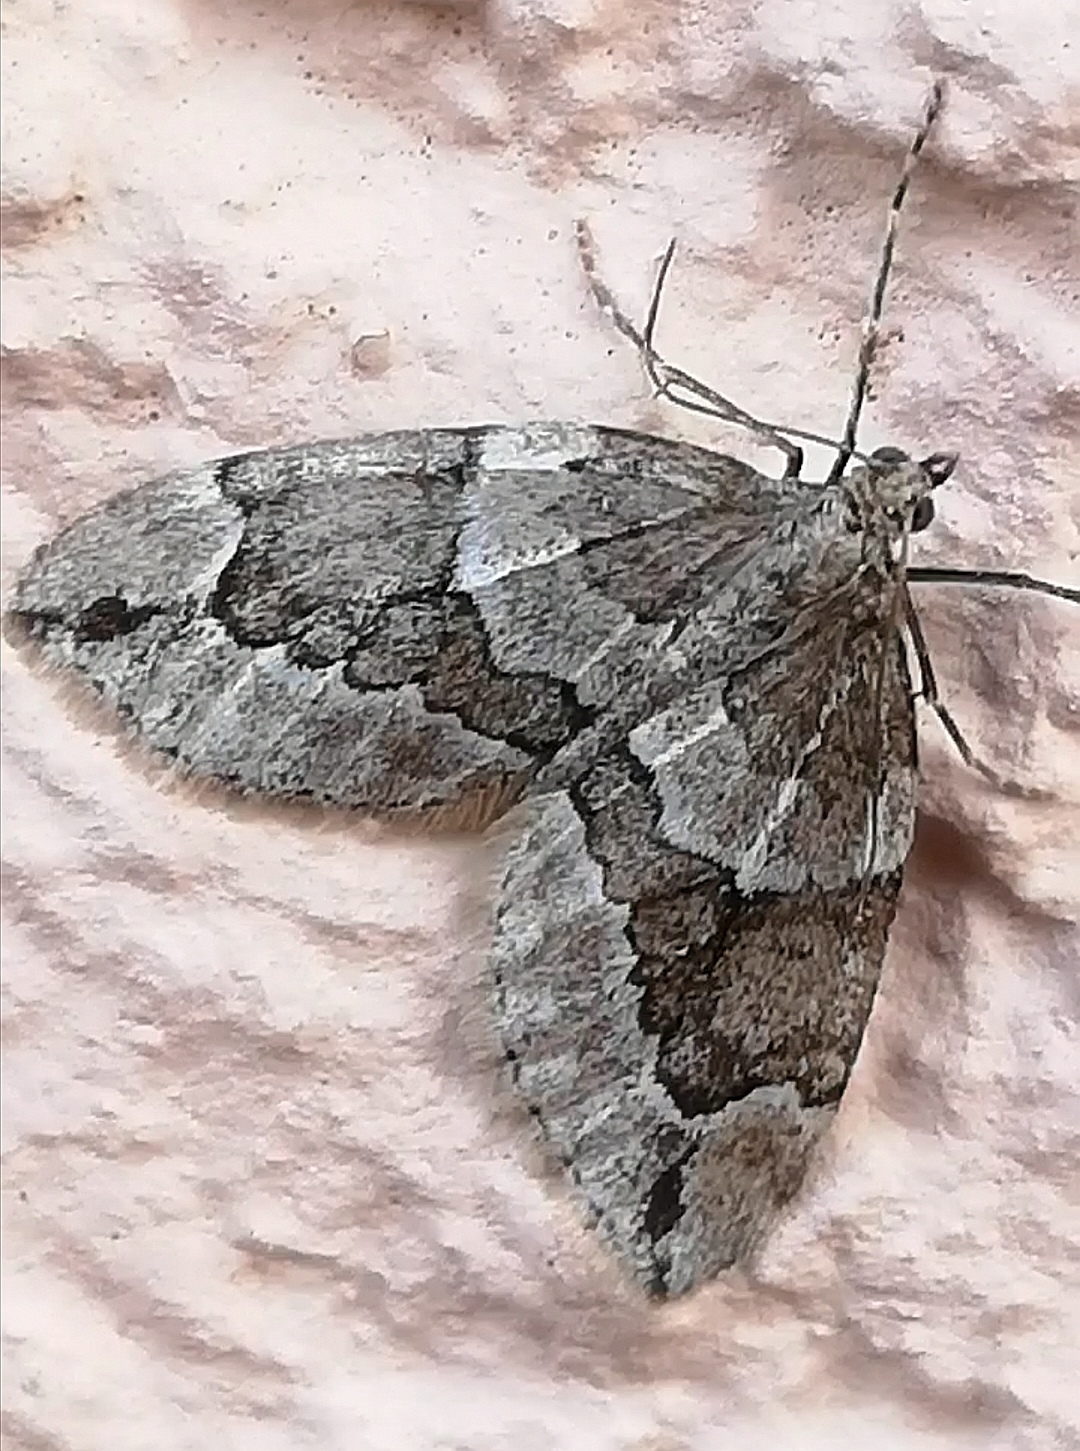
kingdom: Animalia
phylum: Arthropoda
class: Insecta
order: Lepidoptera
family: Geometridae
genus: Thera
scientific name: Thera juniperata
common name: Juniper carpet
